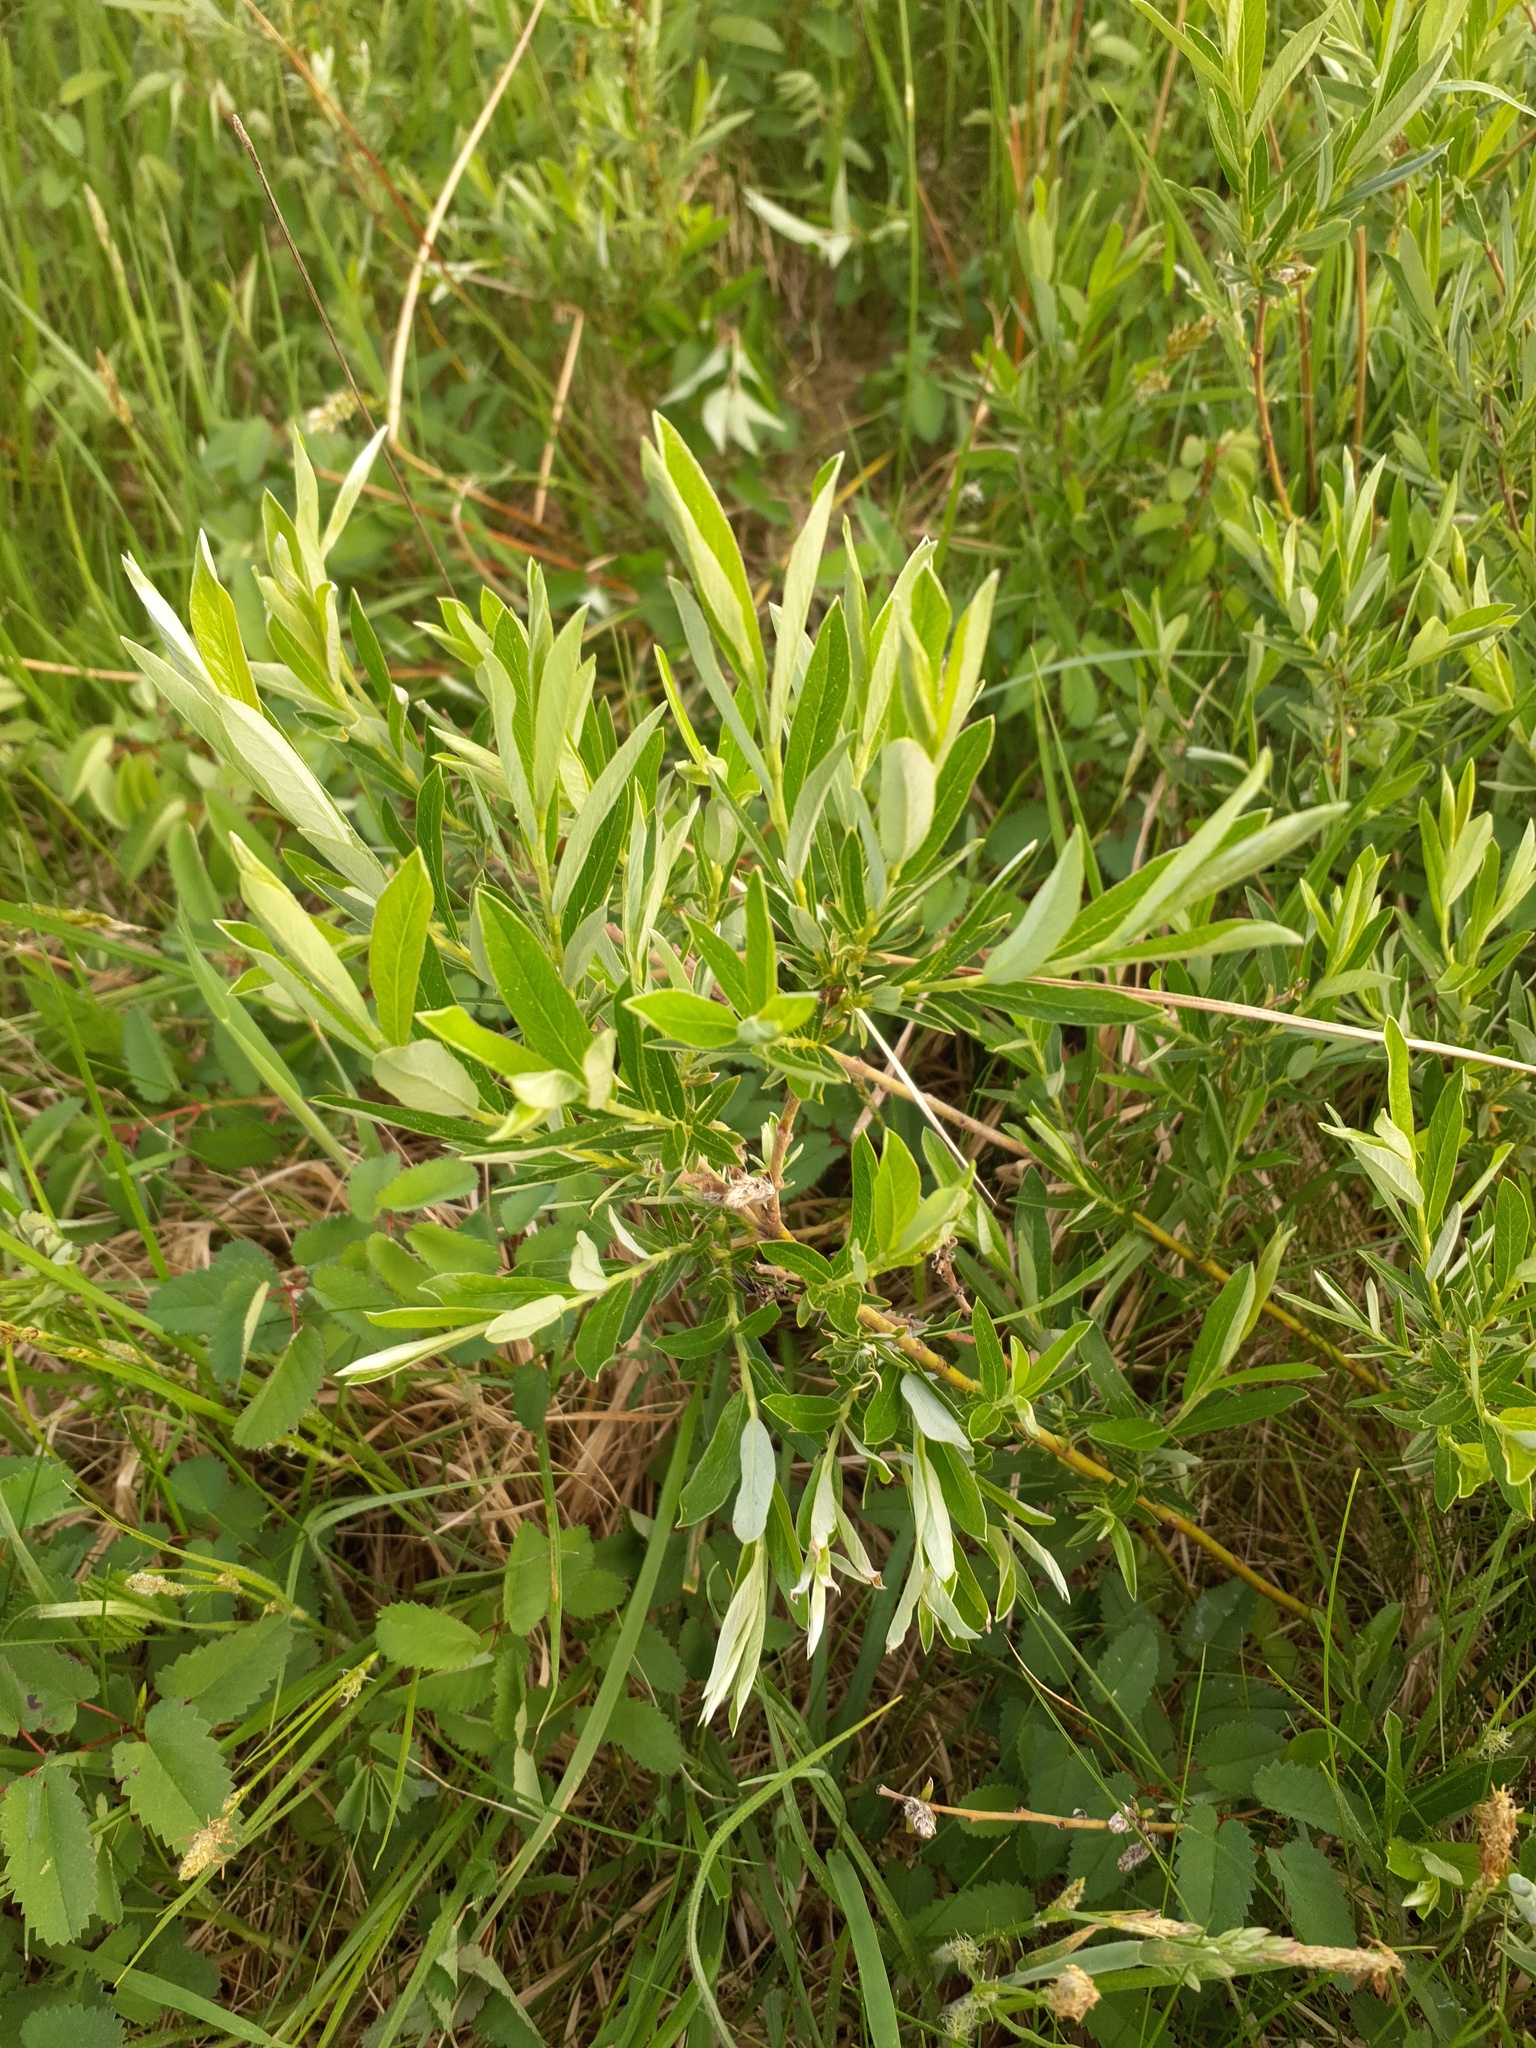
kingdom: Plantae
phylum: Tracheophyta
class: Magnoliopsida
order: Malpighiales
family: Salicaceae
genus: Salix
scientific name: Salix rosmarinifolia
